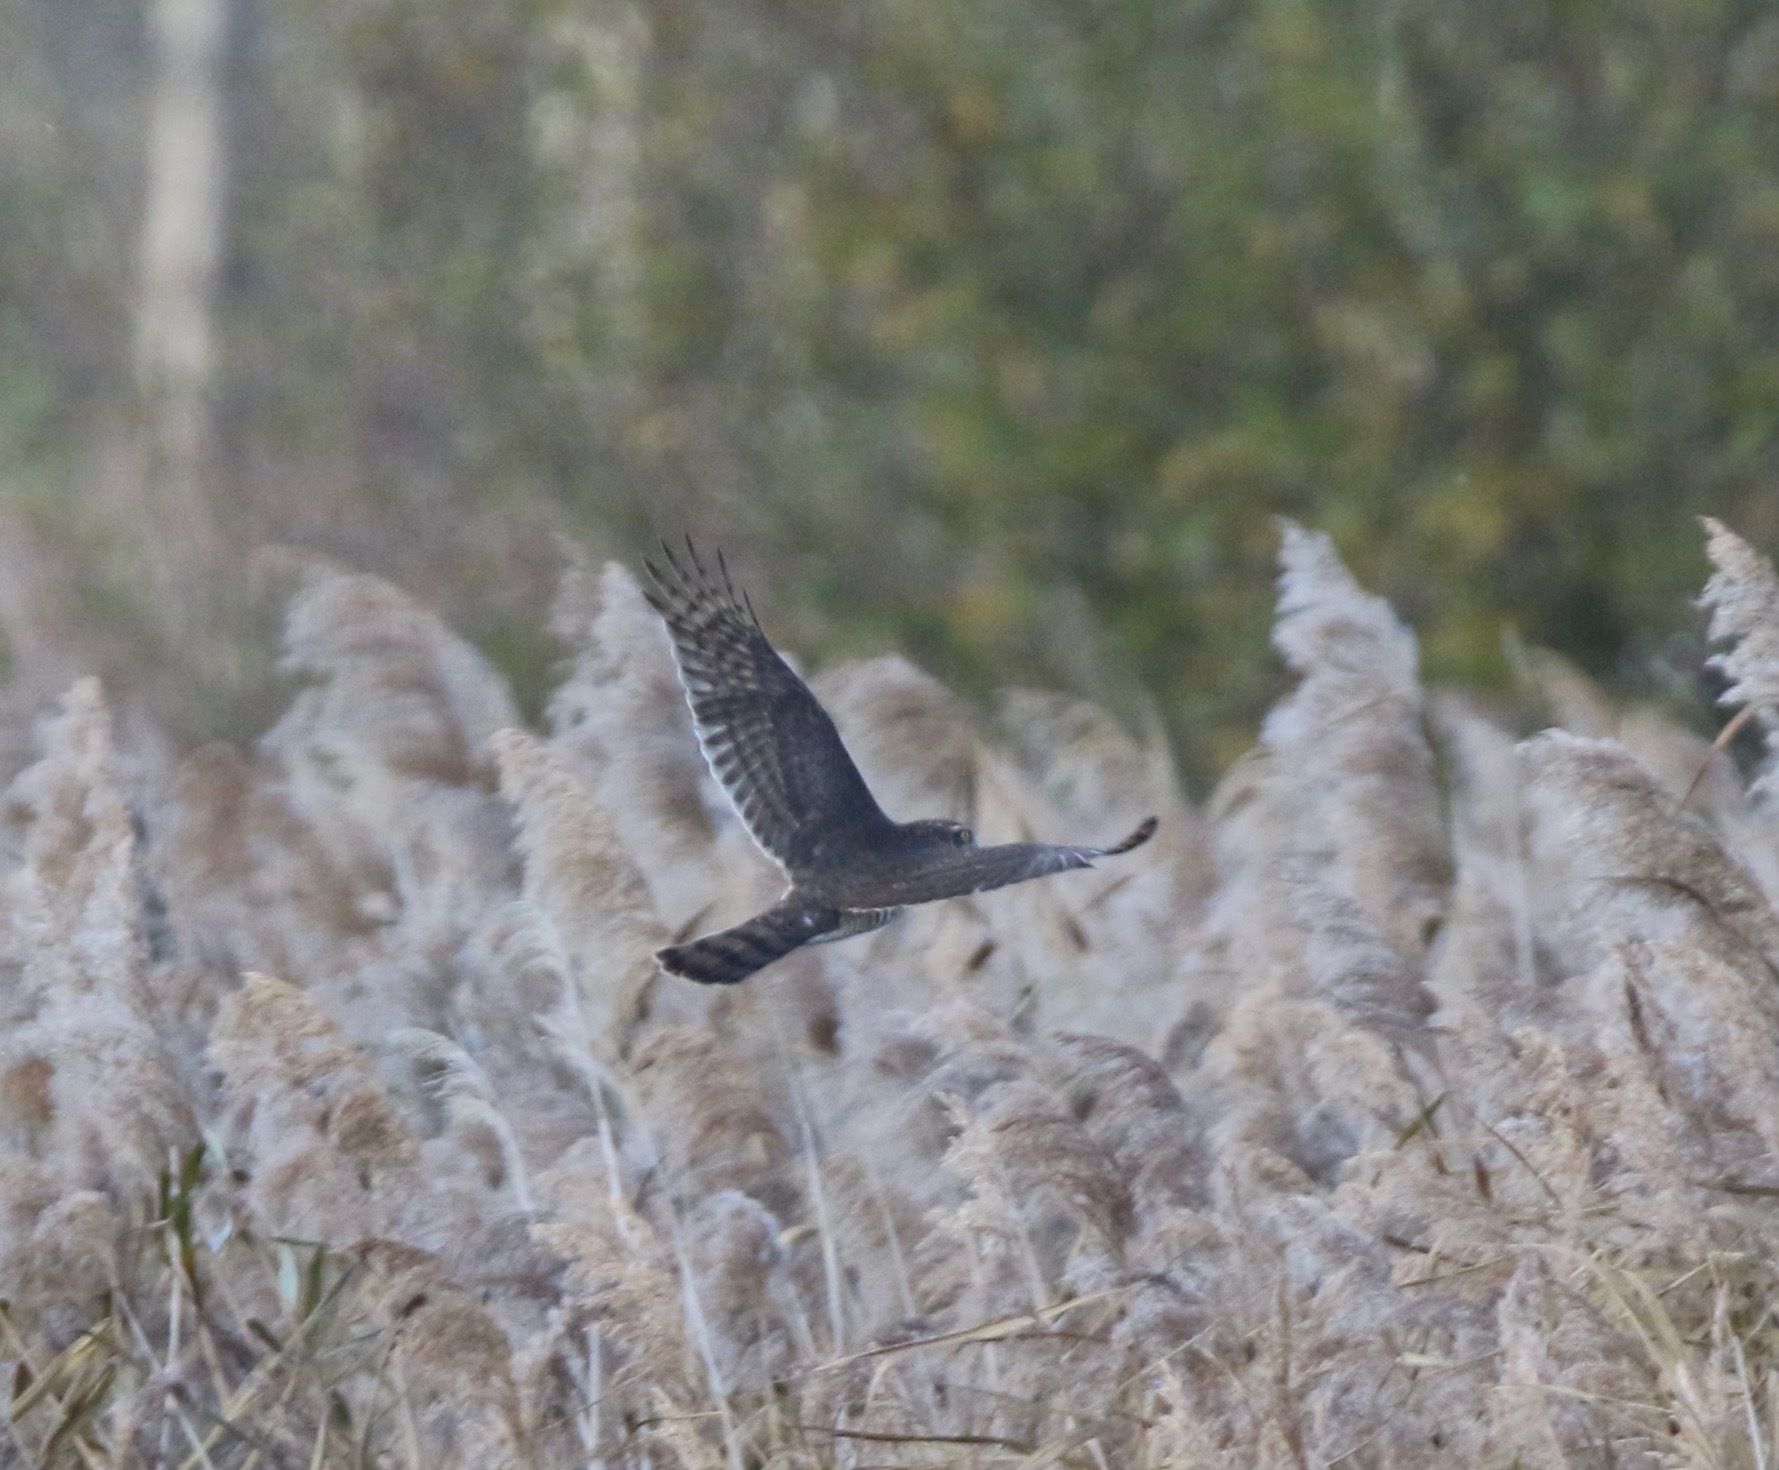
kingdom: Animalia
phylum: Chordata
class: Aves
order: Accipitriformes
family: Accipitridae
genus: Accipiter
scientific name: Accipiter nisus
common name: Eurasian sparrowhawk
